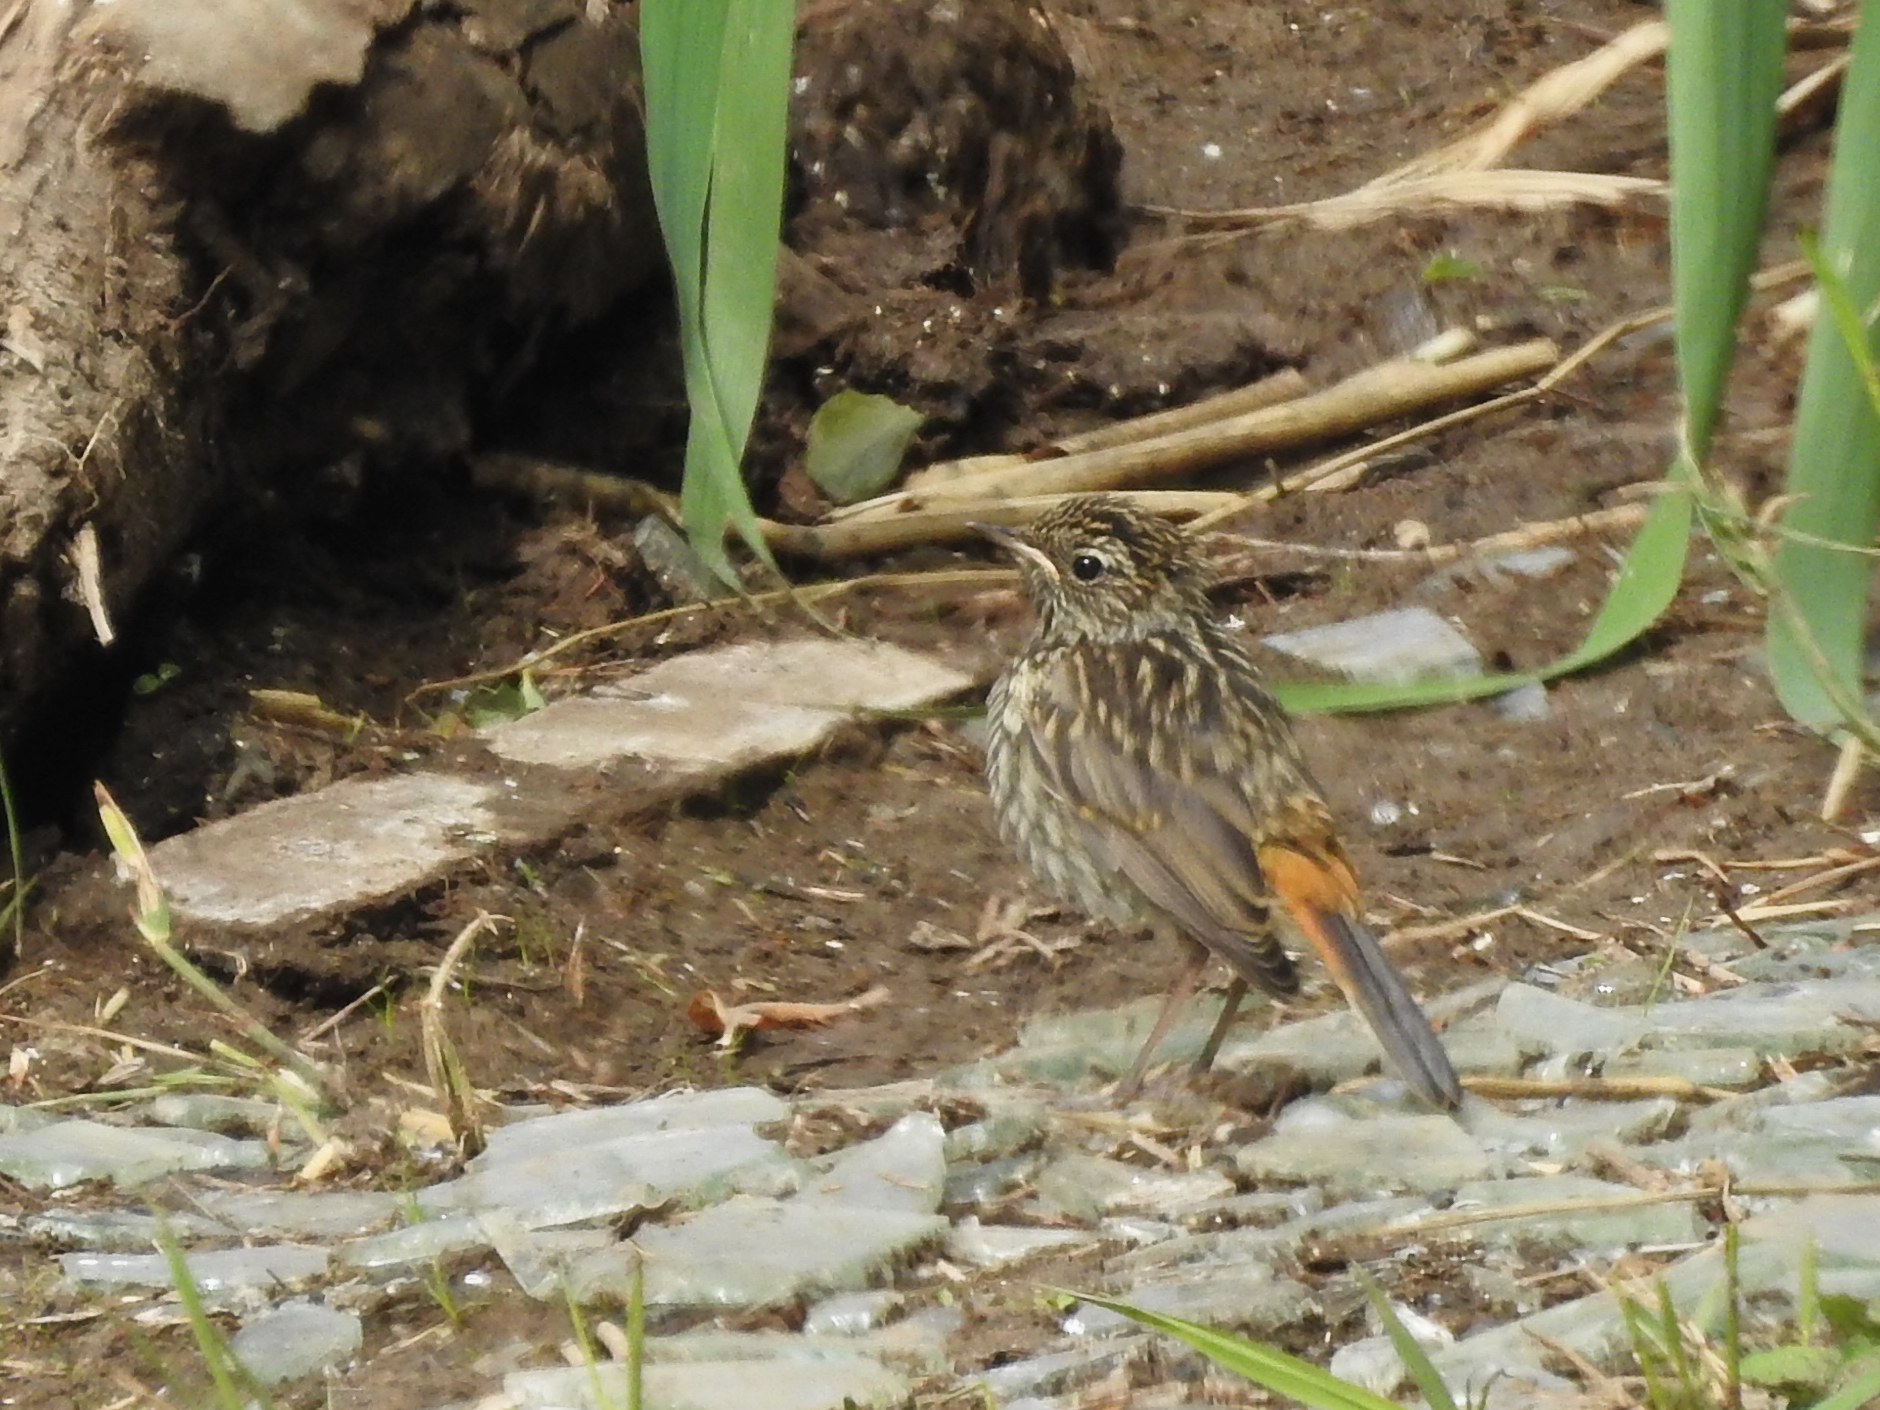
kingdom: Animalia
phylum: Chordata
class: Aves
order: Passeriformes
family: Muscicapidae
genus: Luscinia
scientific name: Luscinia svecica
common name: Bluethroat
